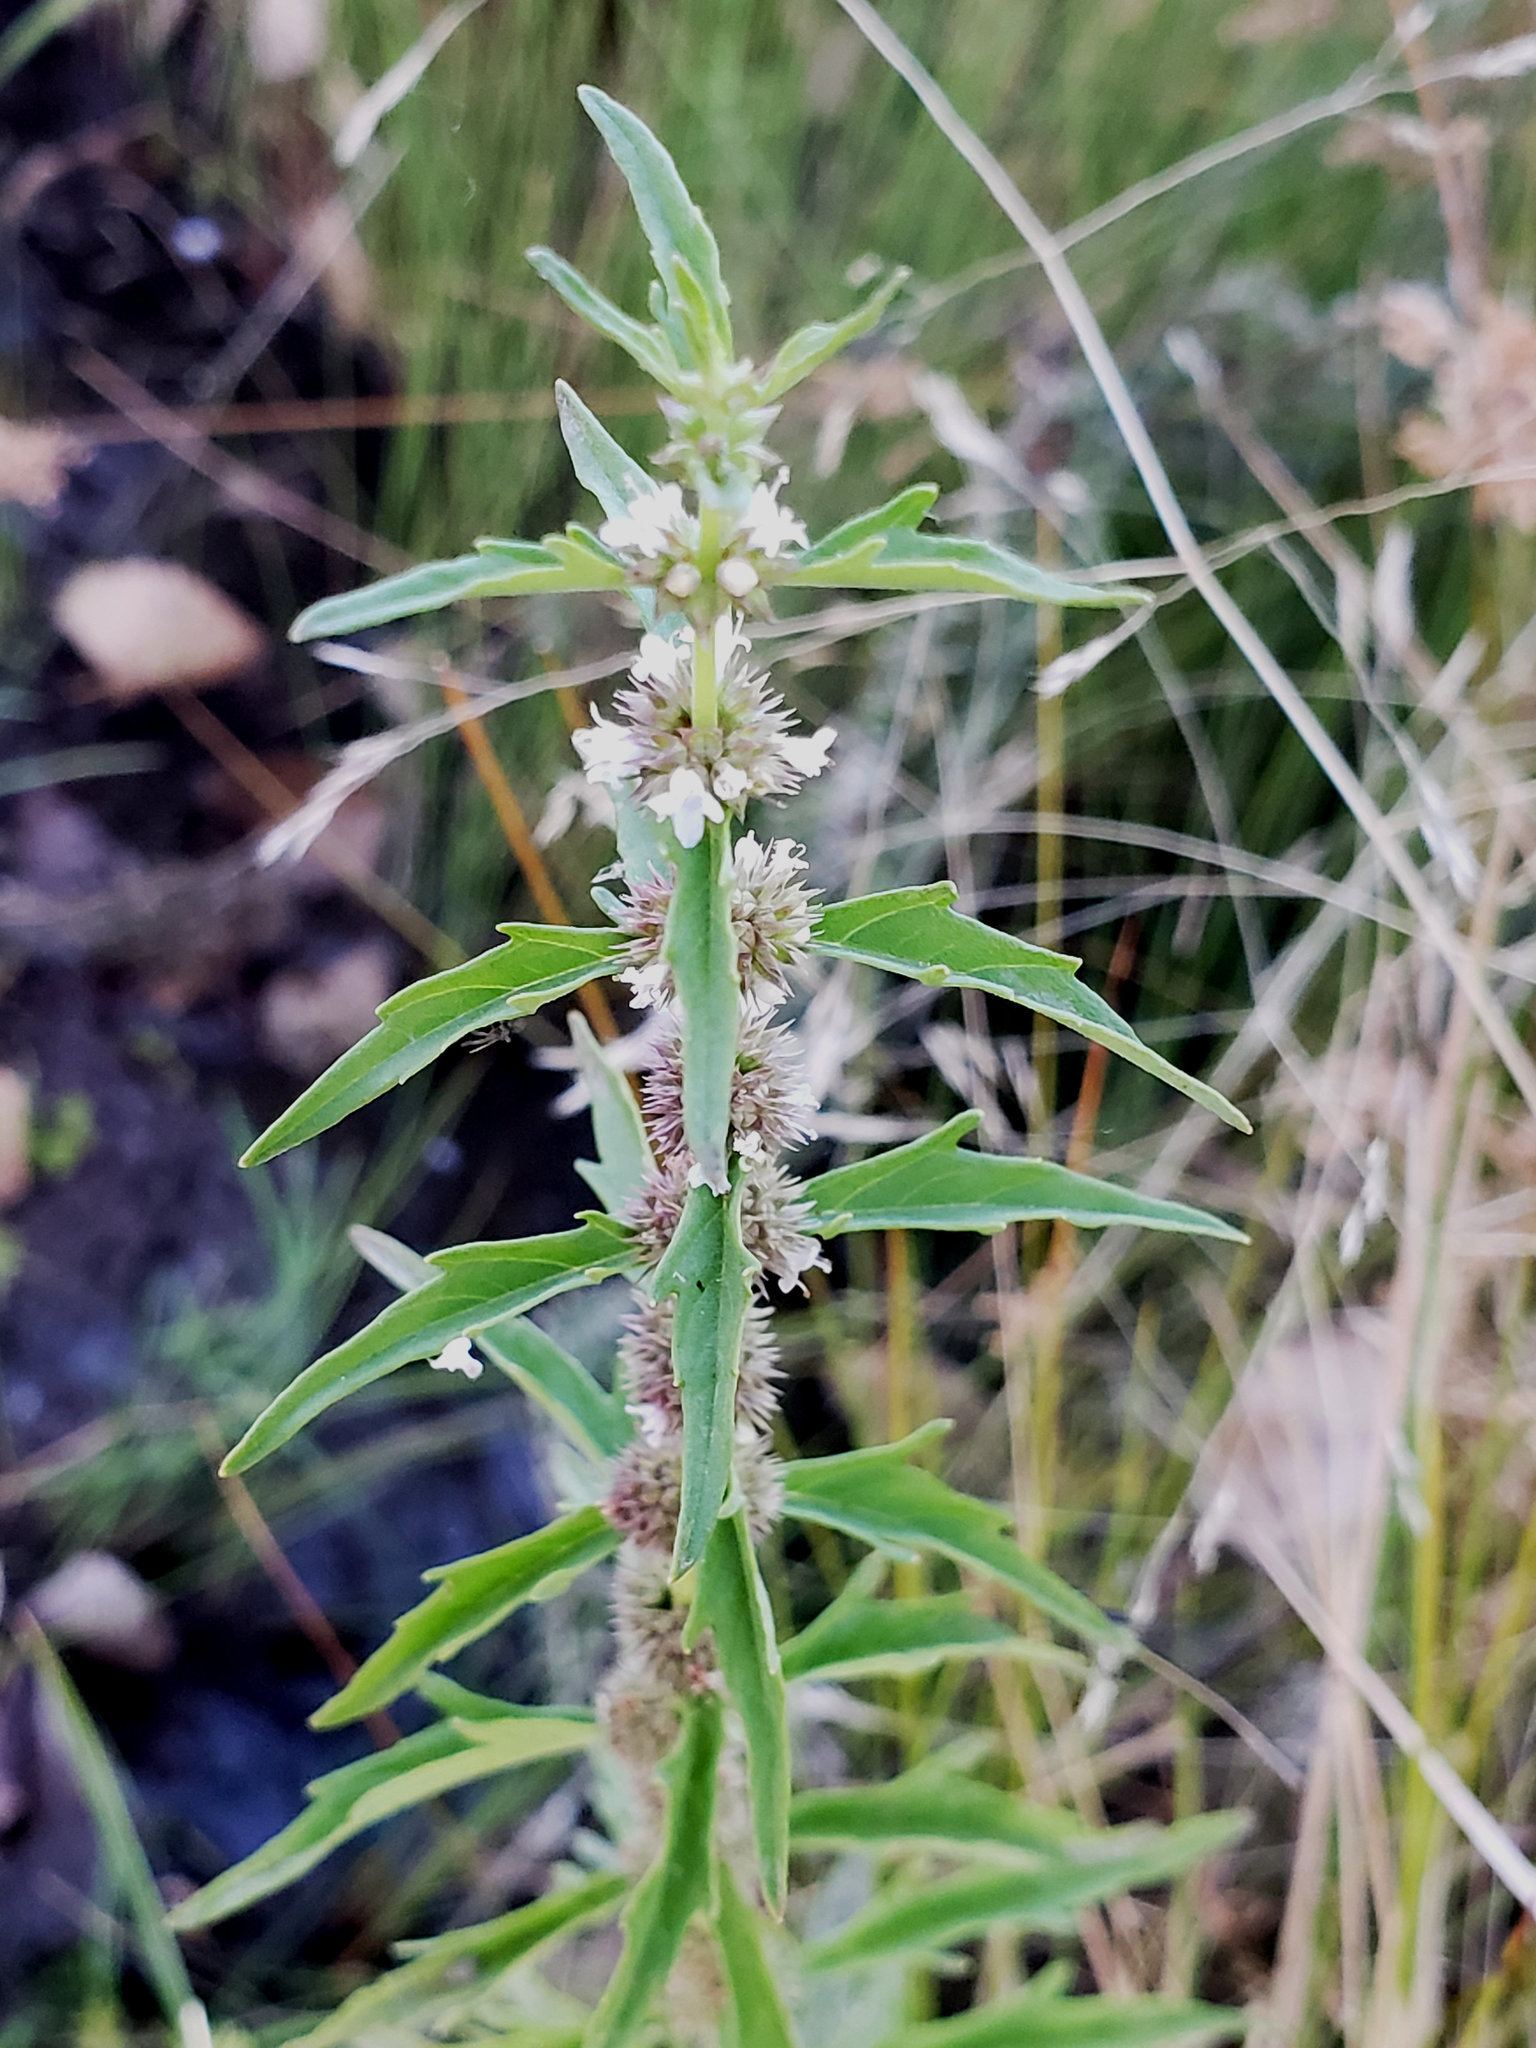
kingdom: Plantae
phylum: Tracheophyta
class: Magnoliopsida
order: Lamiales
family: Lamiaceae
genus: Lycopus
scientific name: Lycopus americanus
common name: American bugleweed
